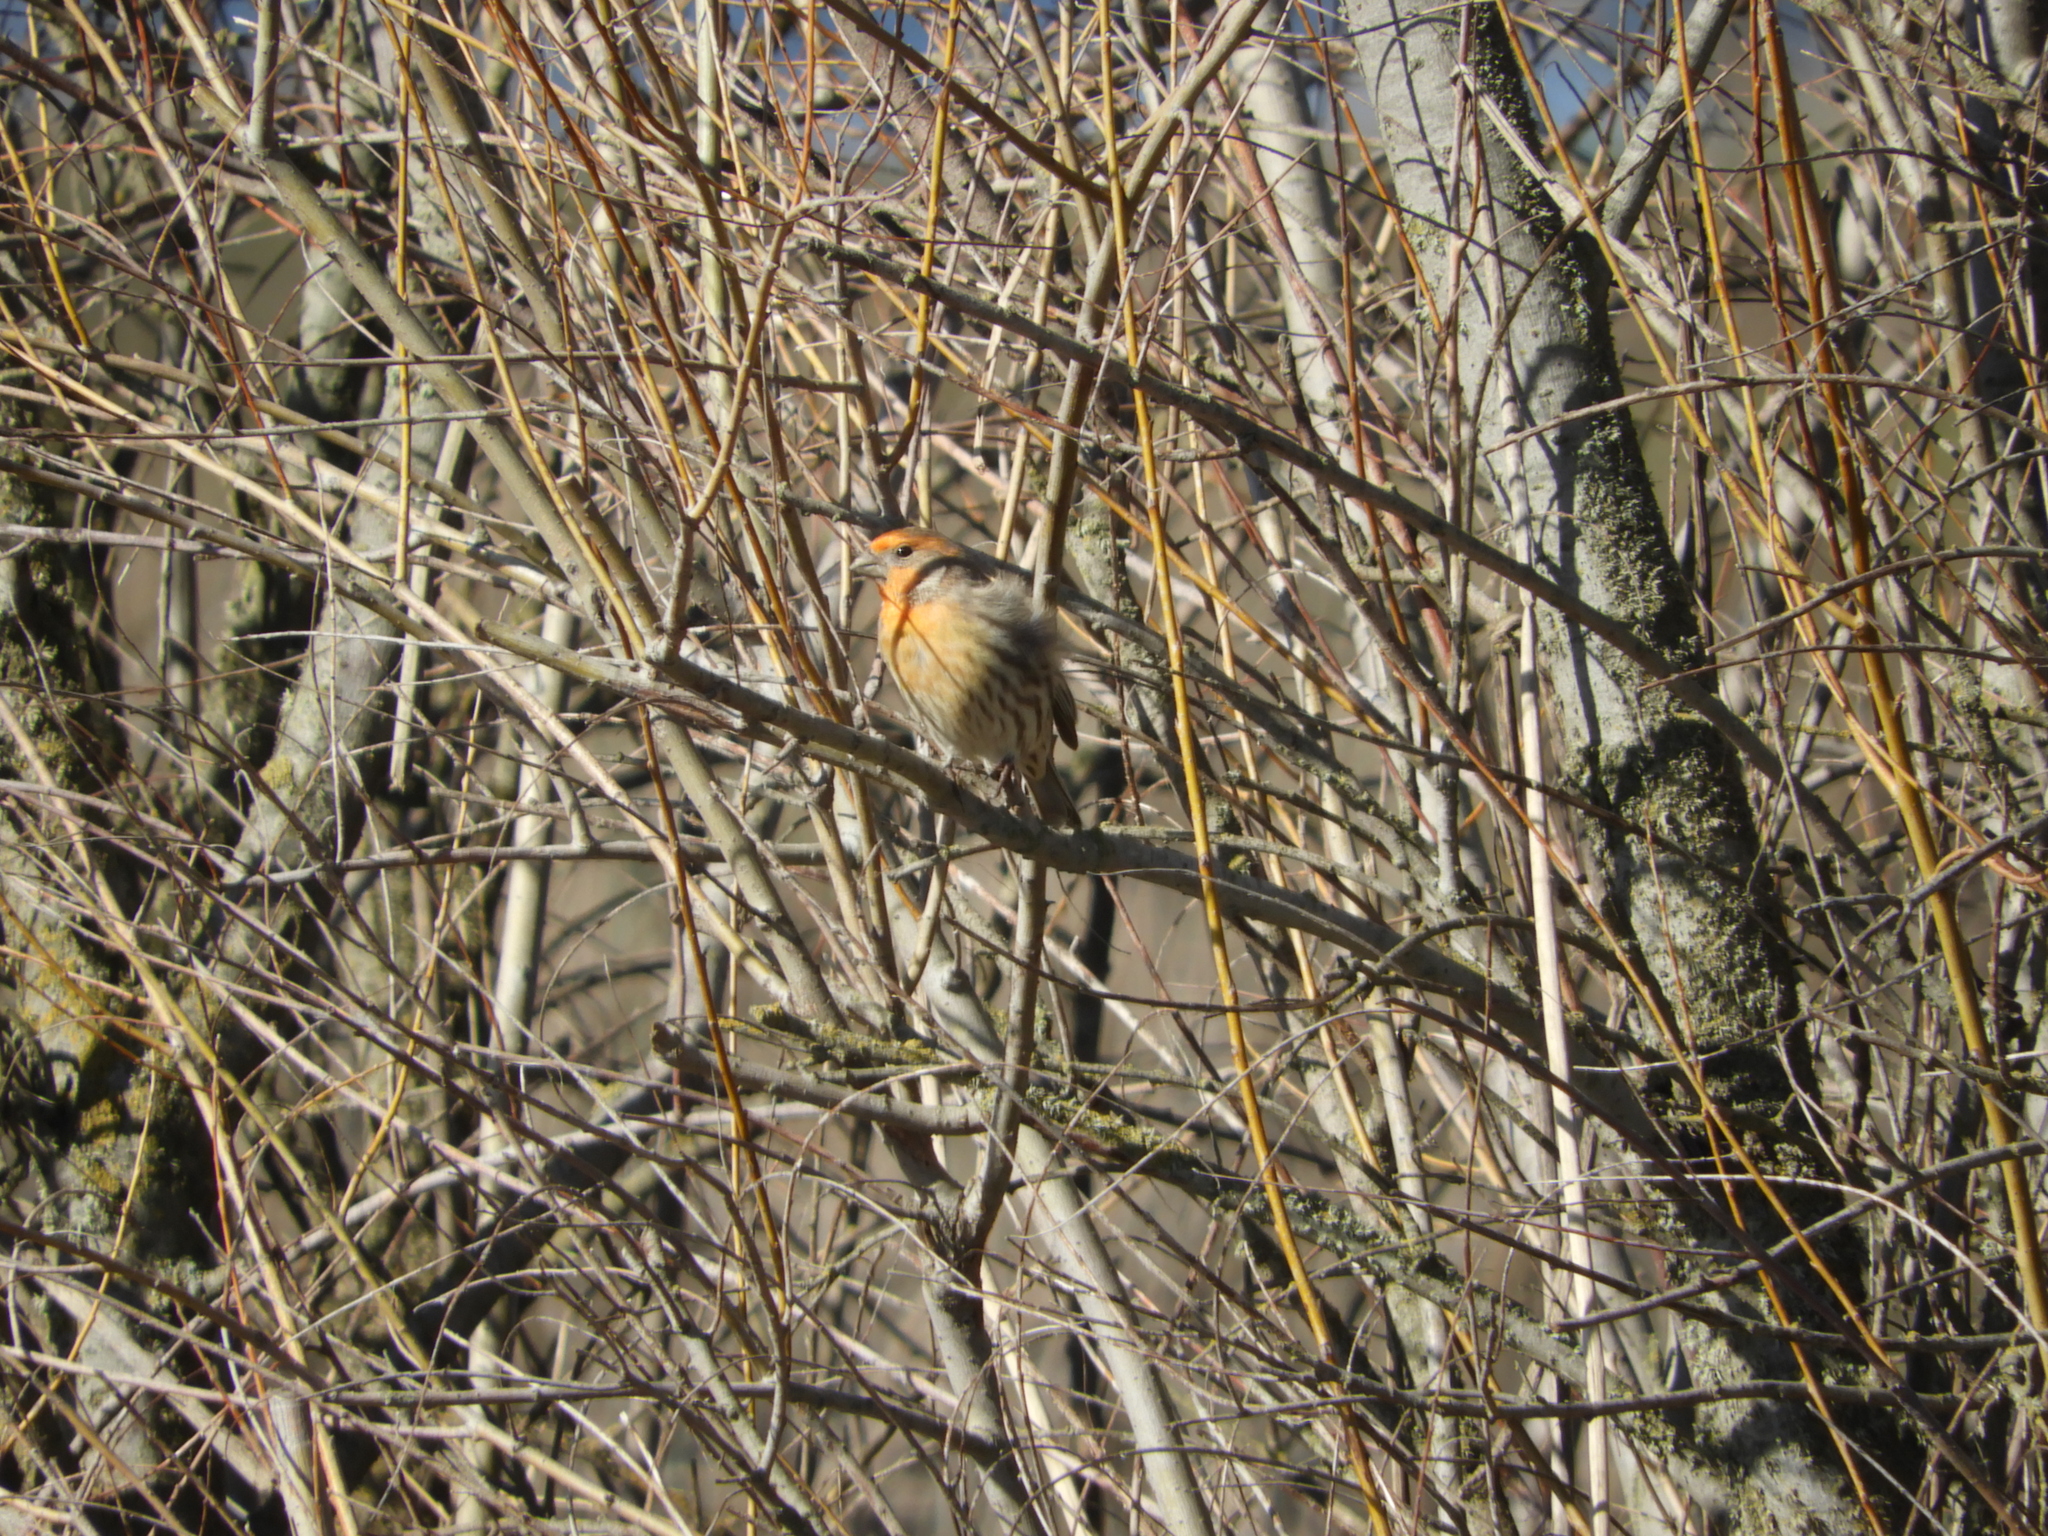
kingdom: Animalia
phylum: Chordata
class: Aves
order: Passeriformes
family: Fringillidae
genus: Haemorhous
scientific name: Haemorhous mexicanus
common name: House finch
